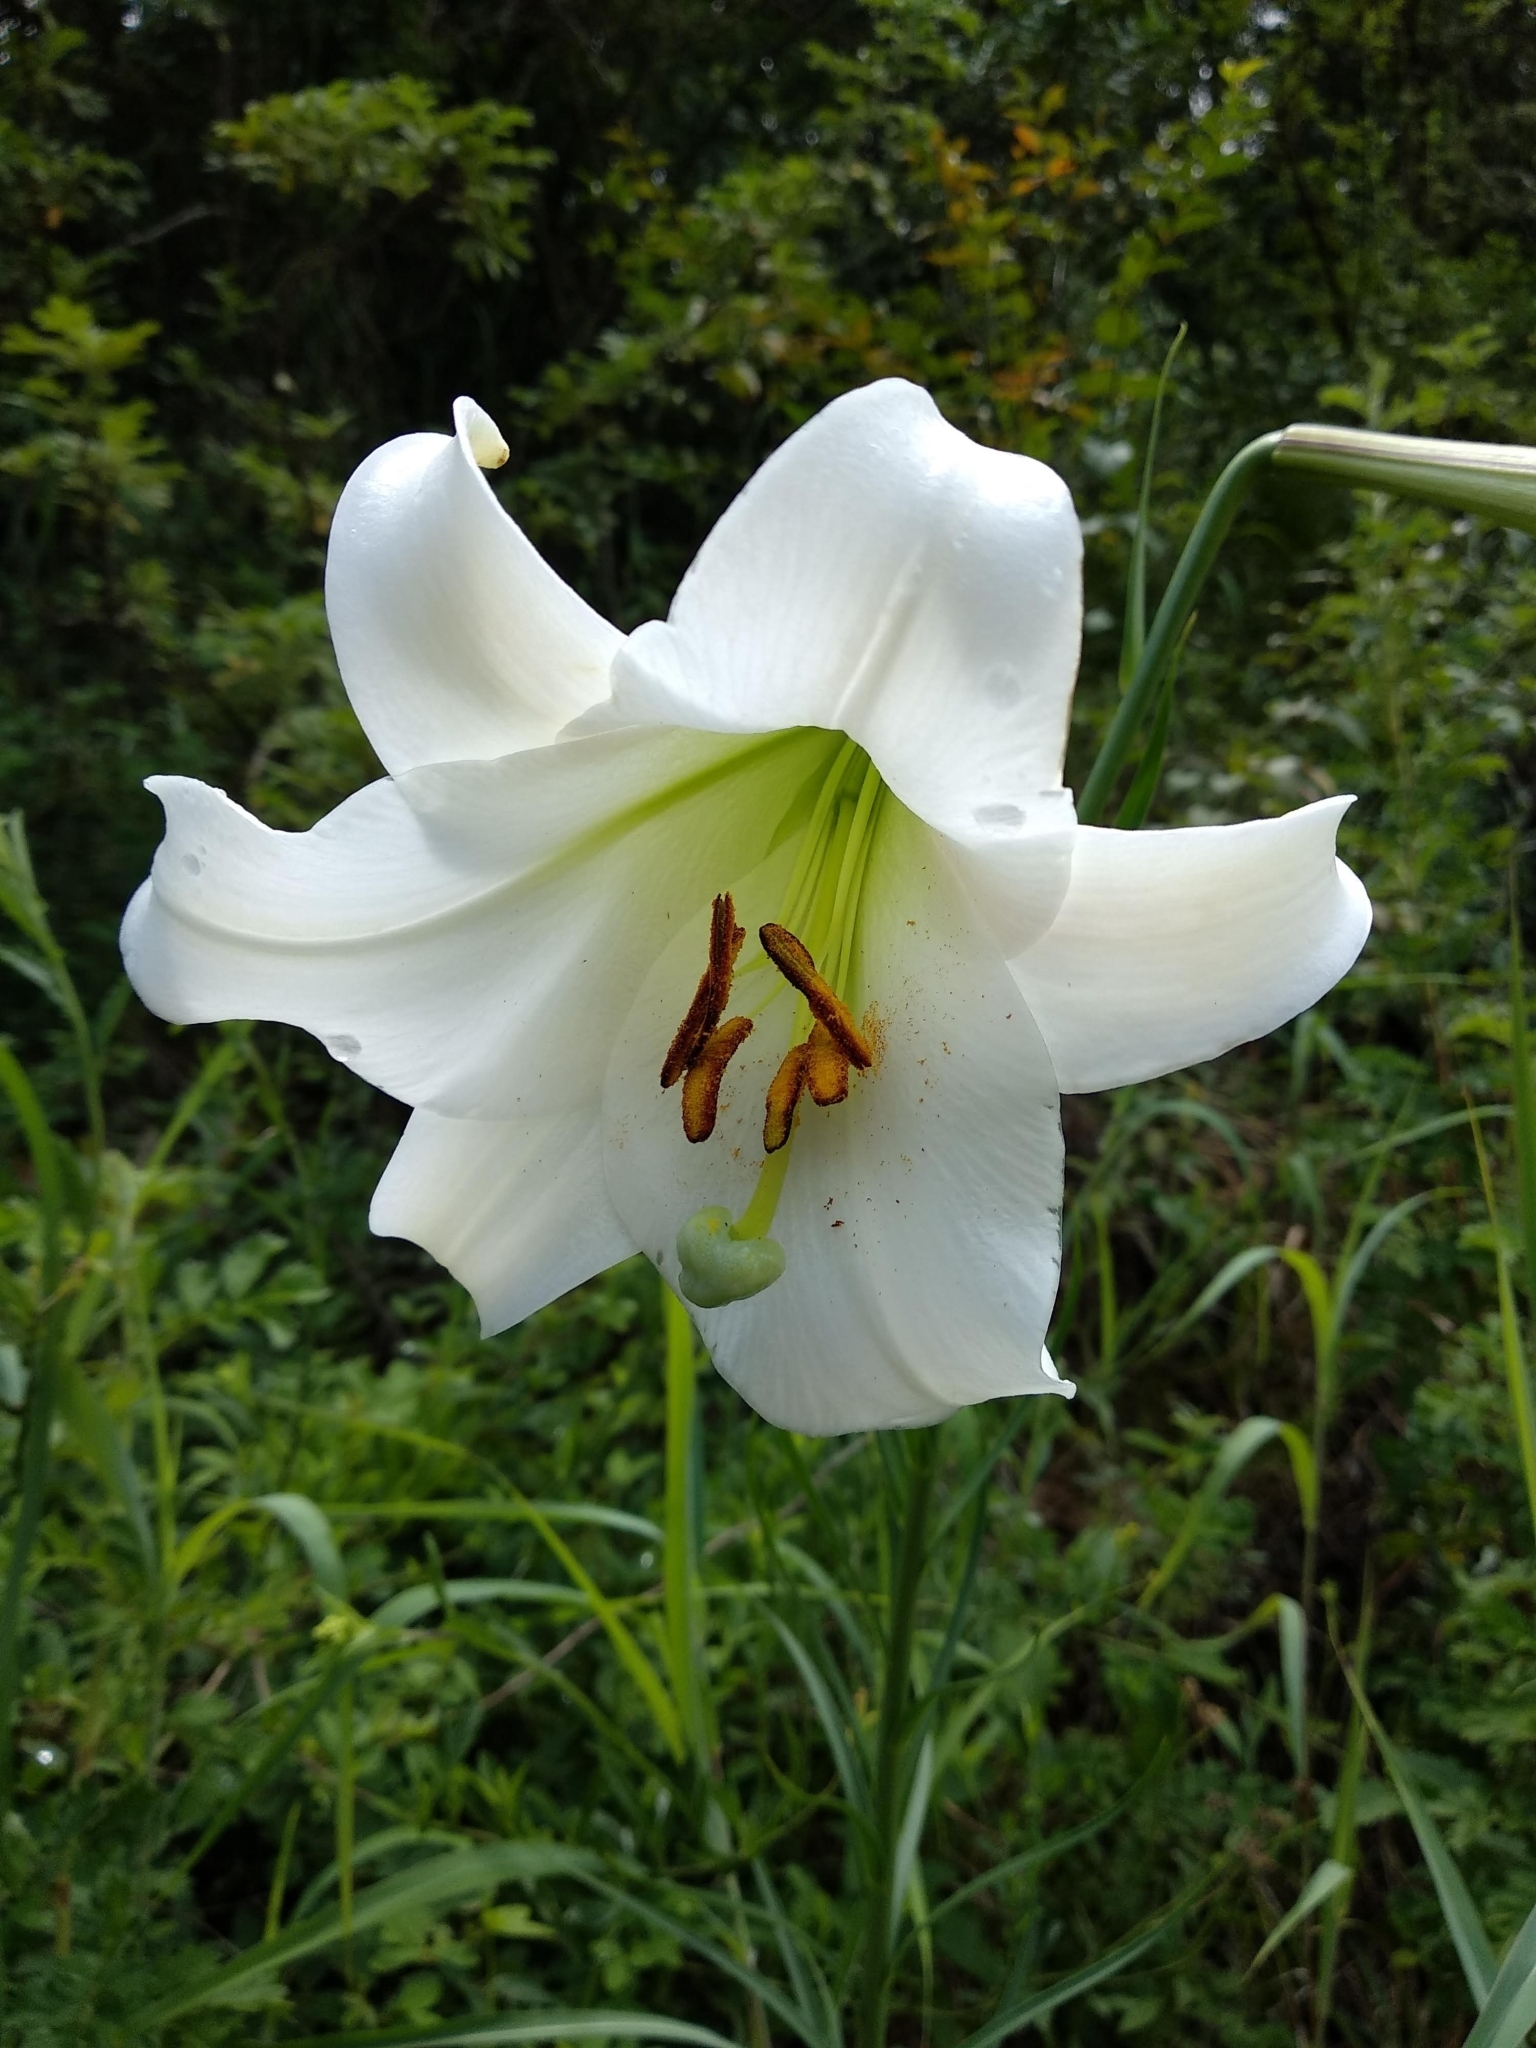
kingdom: Plantae
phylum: Tracheophyta
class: Liliopsida
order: Liliales
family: Liliaceae
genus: Lilium
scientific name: Lilium formosanum
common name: Formosa lily
